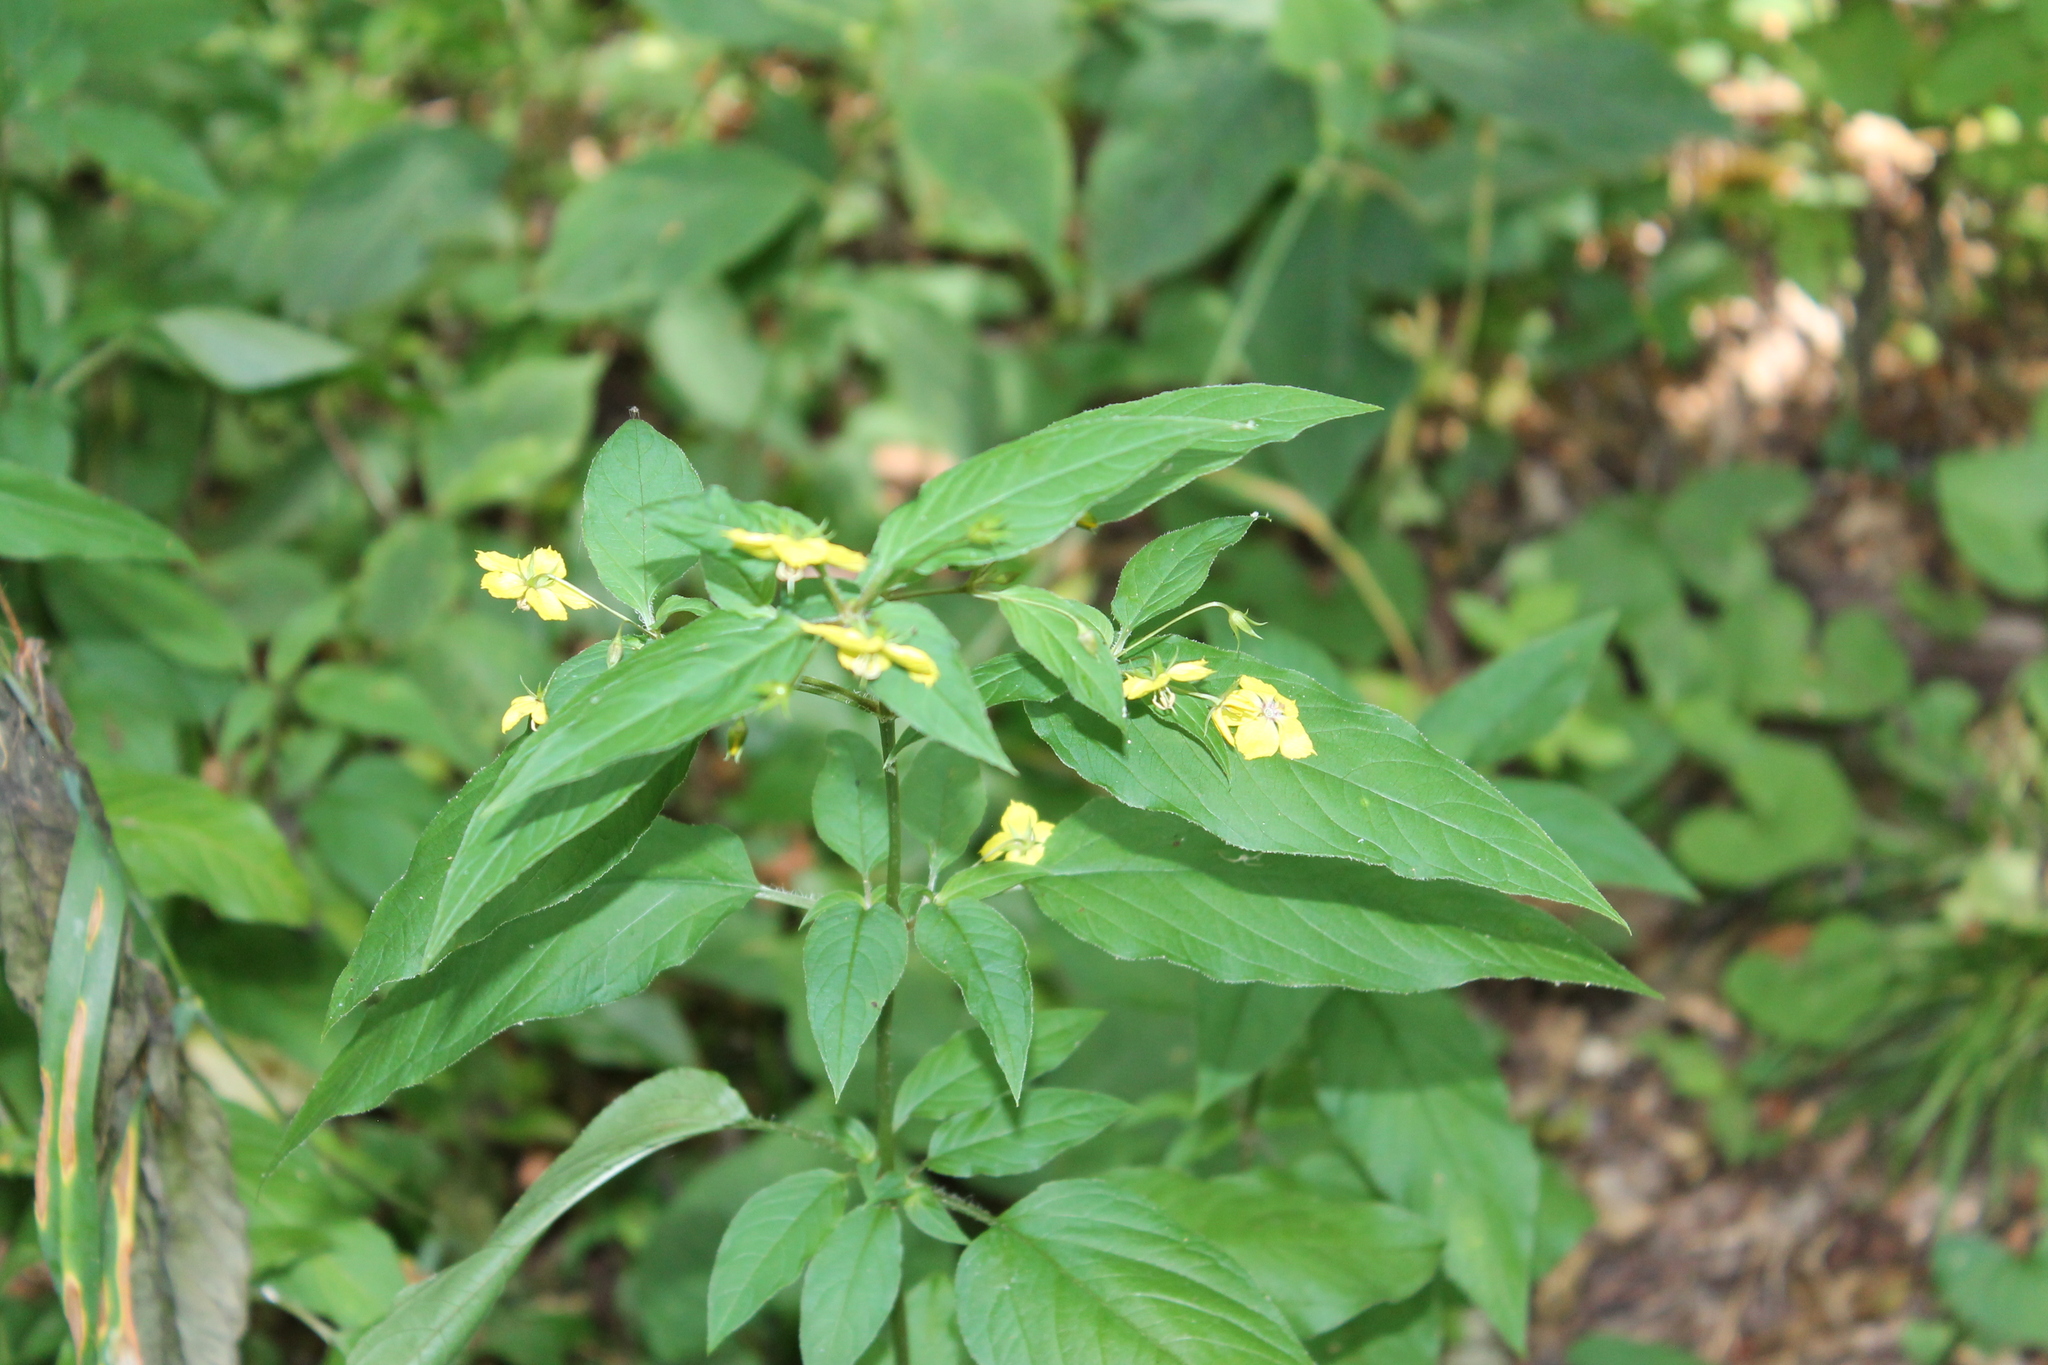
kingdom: Plantae
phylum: Tracheophyta
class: Magnoliopsida
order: Ericales
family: Primulaceae
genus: Lysimachia
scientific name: Lysimachia ciliata
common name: Fringed loosestrife
